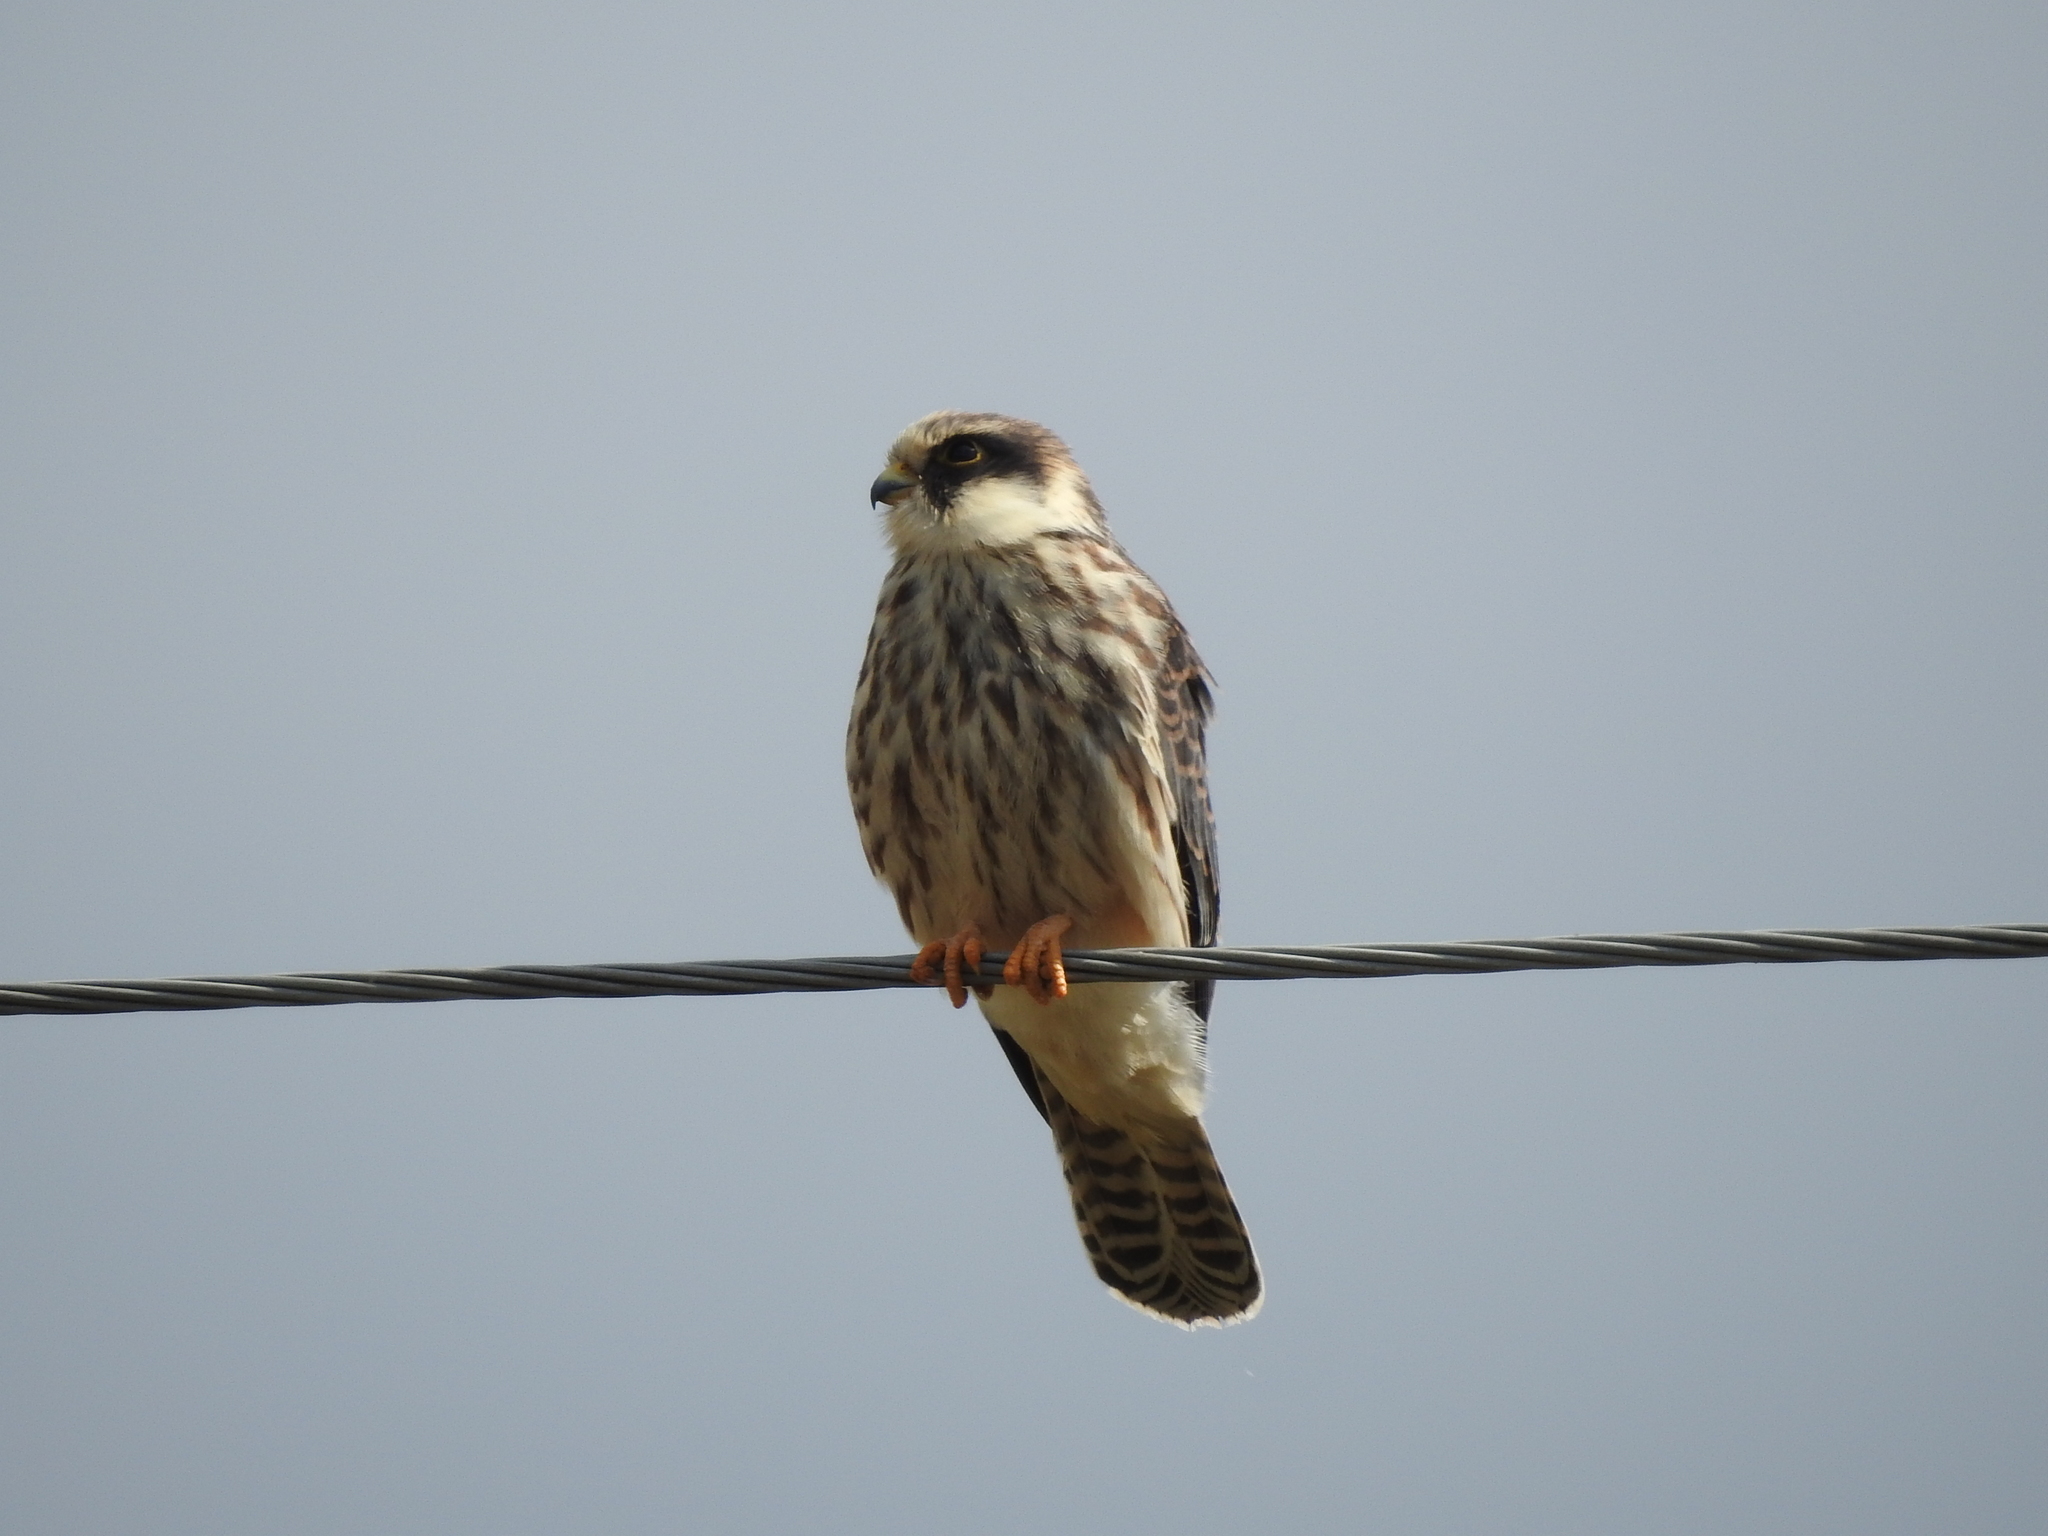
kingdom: Animalia
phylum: Chordata
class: Aves
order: Falconiformes
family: Falconidae
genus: Falco
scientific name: Falco vespertinus
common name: Red-footed falcon
